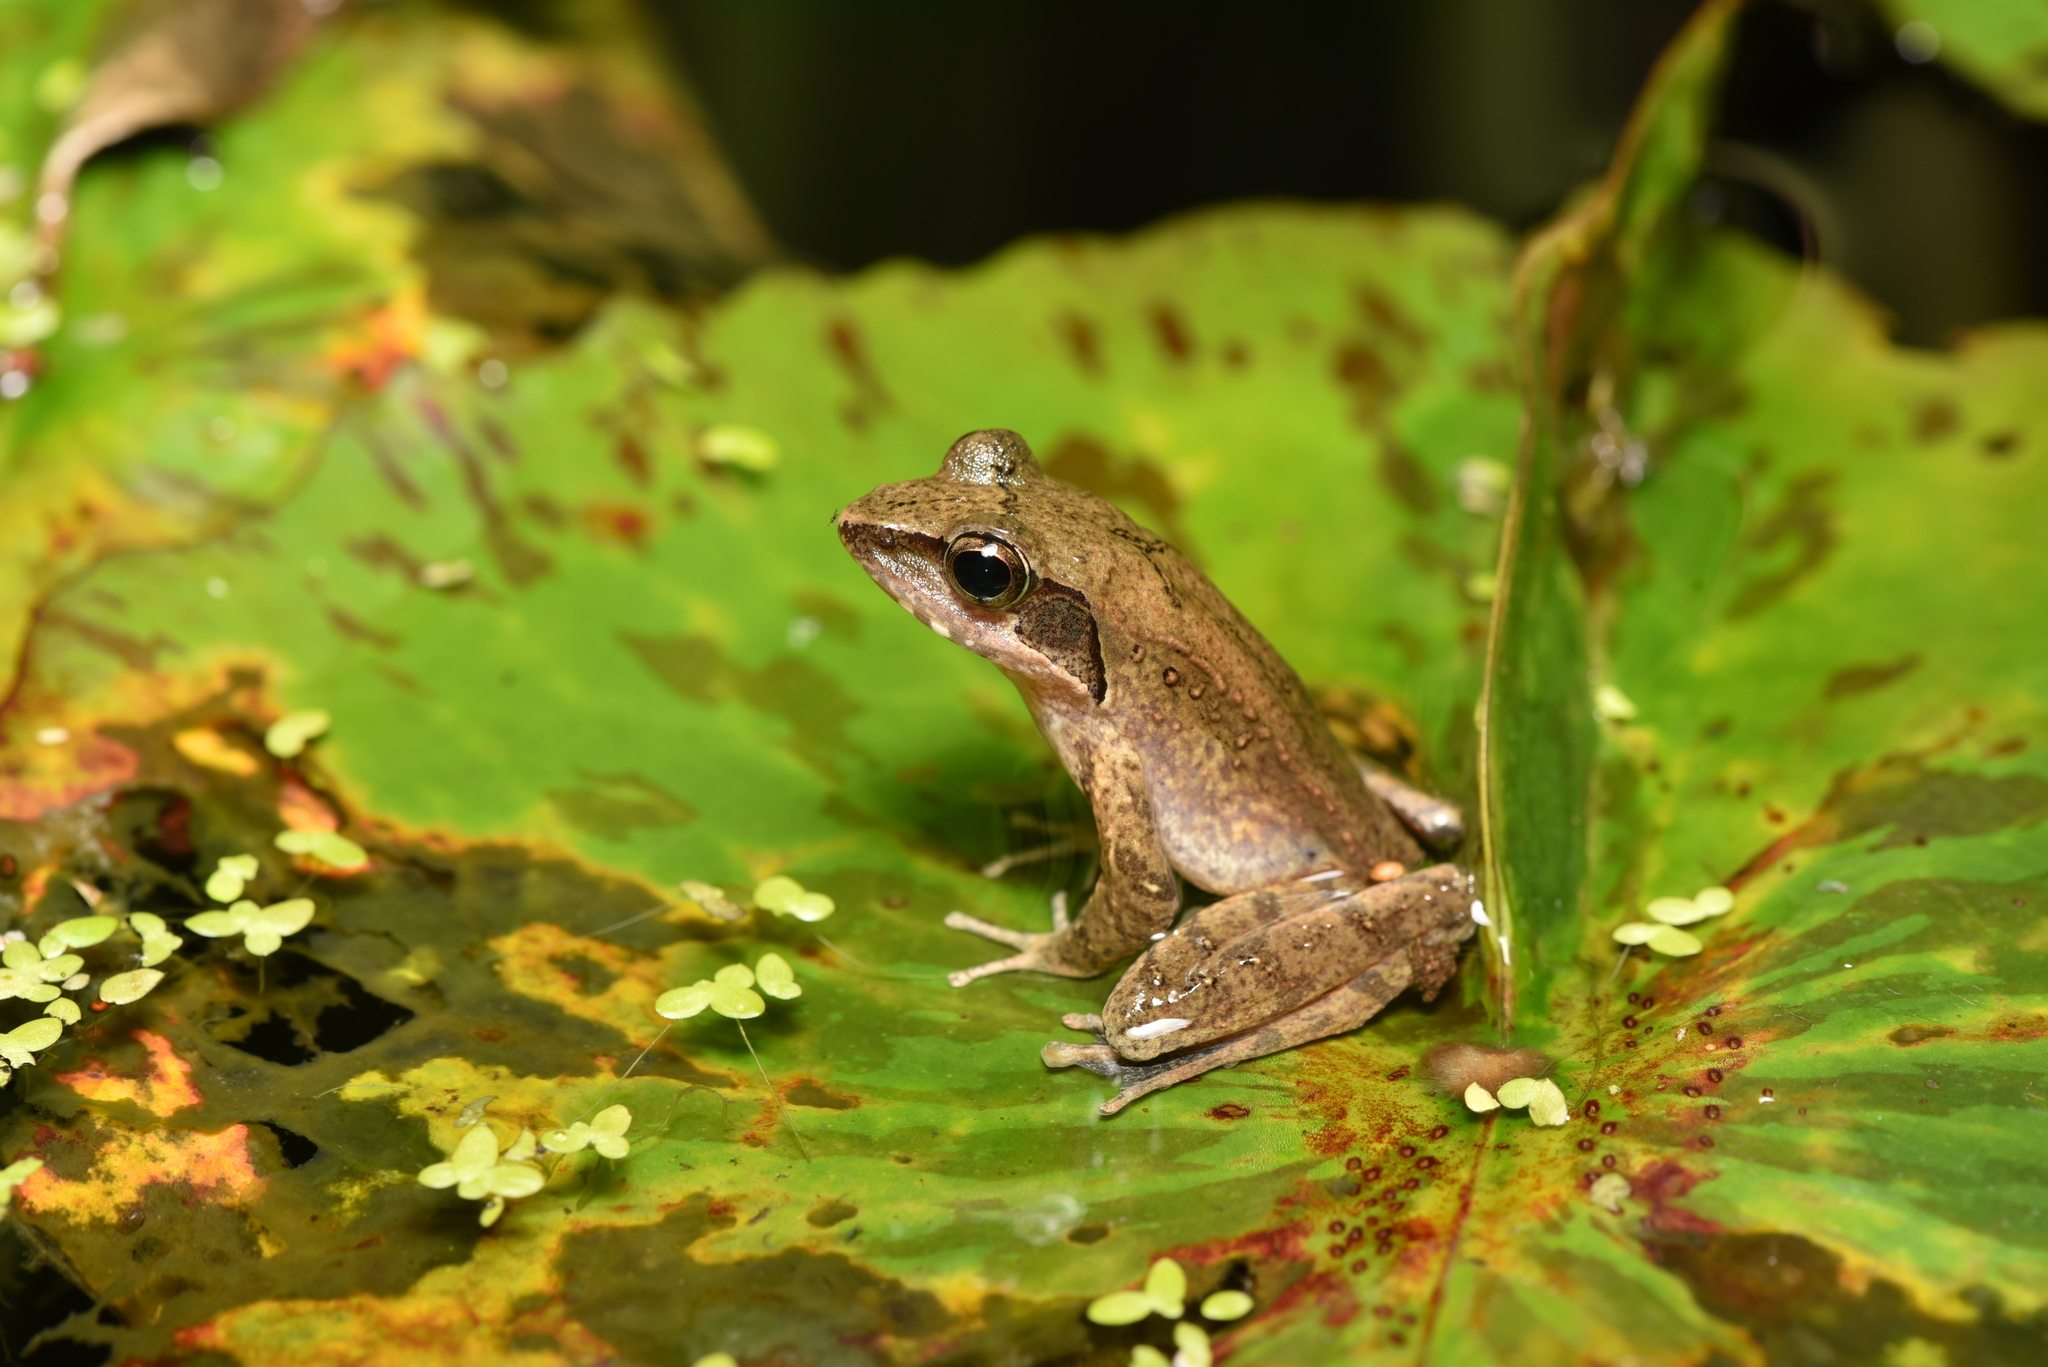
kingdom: Animalia
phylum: Chordata
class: Amphibia
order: Anura
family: Ranidae
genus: Rana
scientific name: Rana sauteri
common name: Kanshirei village frog
